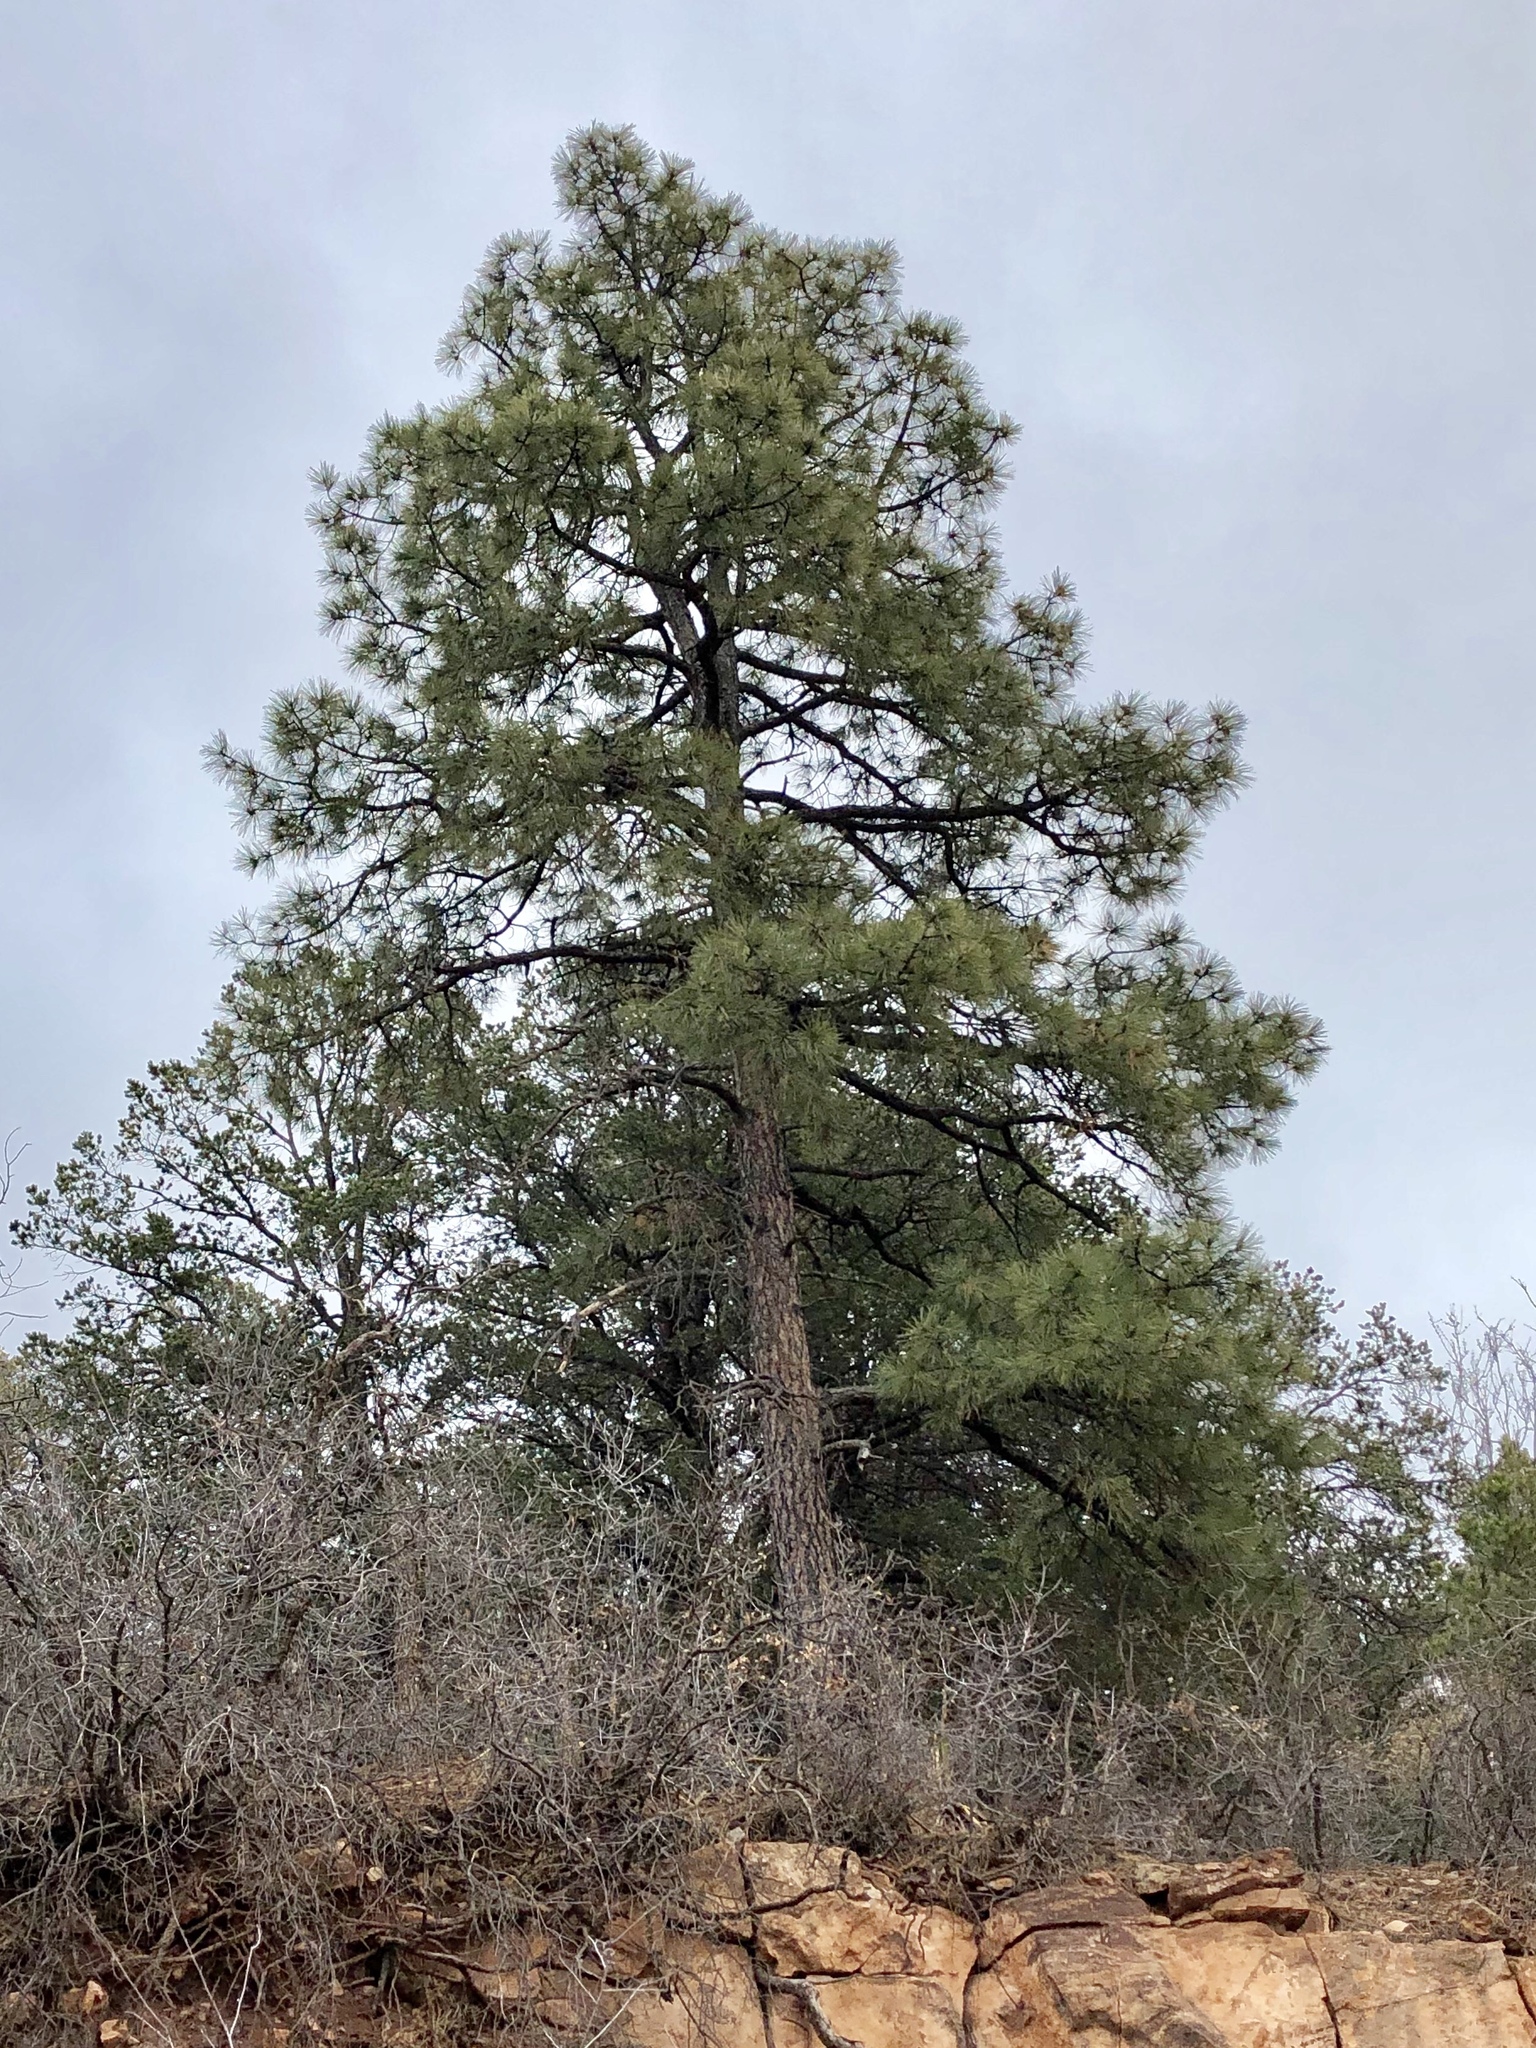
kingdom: Plantae
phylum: Tracheophyta
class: Pinopsida
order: Pinales
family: Pinaceae
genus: Pinus
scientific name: Pinus ponderosa
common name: Western yellow-pine
